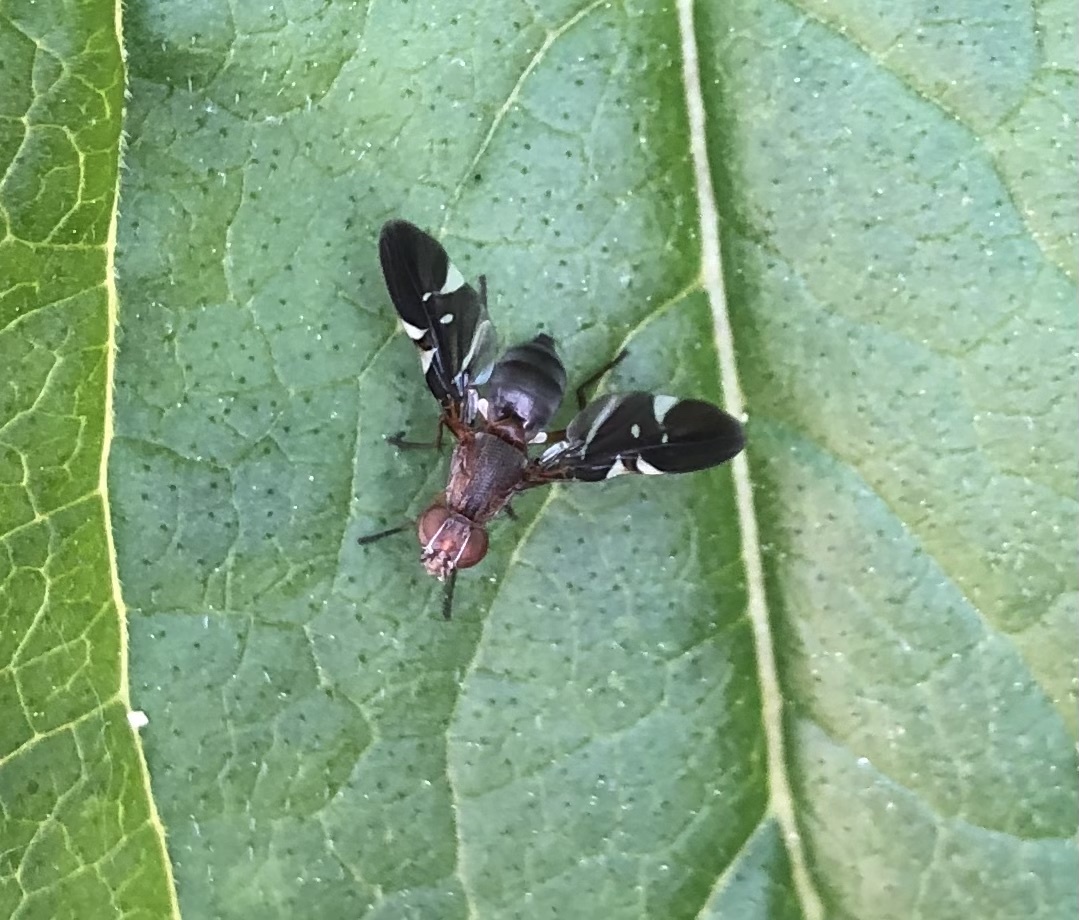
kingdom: Animalia
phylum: Arthropoda
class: Insecta
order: Diptera
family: Ulidiidae
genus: Delphinia
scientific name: Delphinia picta
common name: Common picture-winged fly
